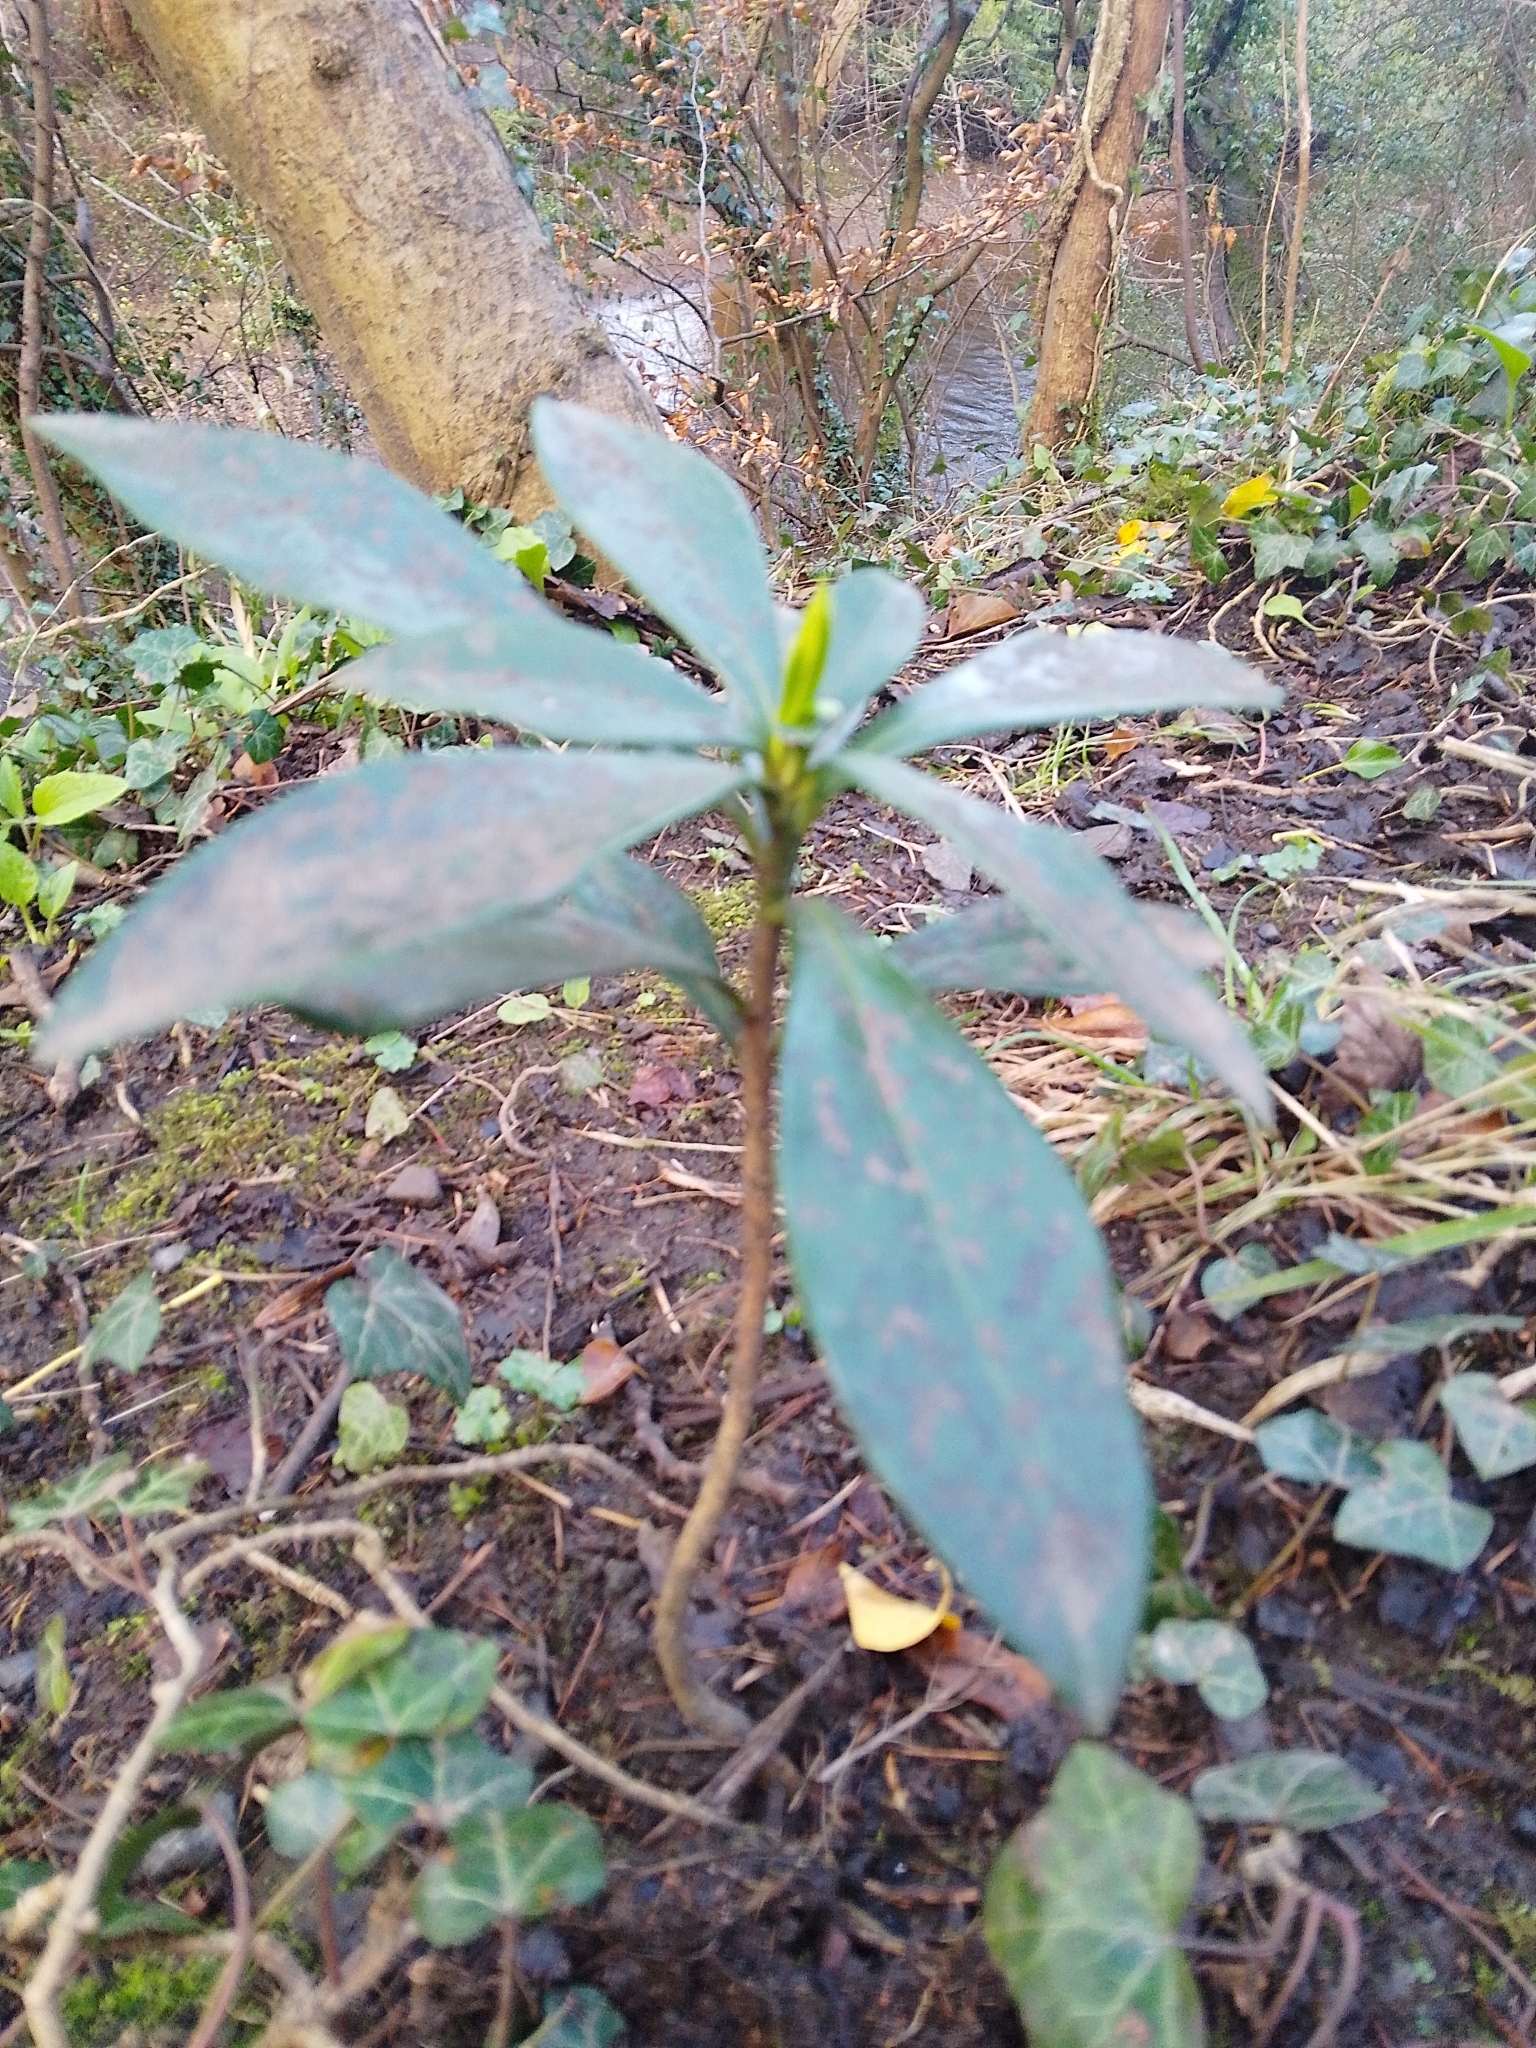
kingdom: Plantae
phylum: Tracheophyta
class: Magnoliopsida
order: Malvales
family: Thymelaeaceae
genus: Daphne
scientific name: Daphne laureola
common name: Spurge-laurel
